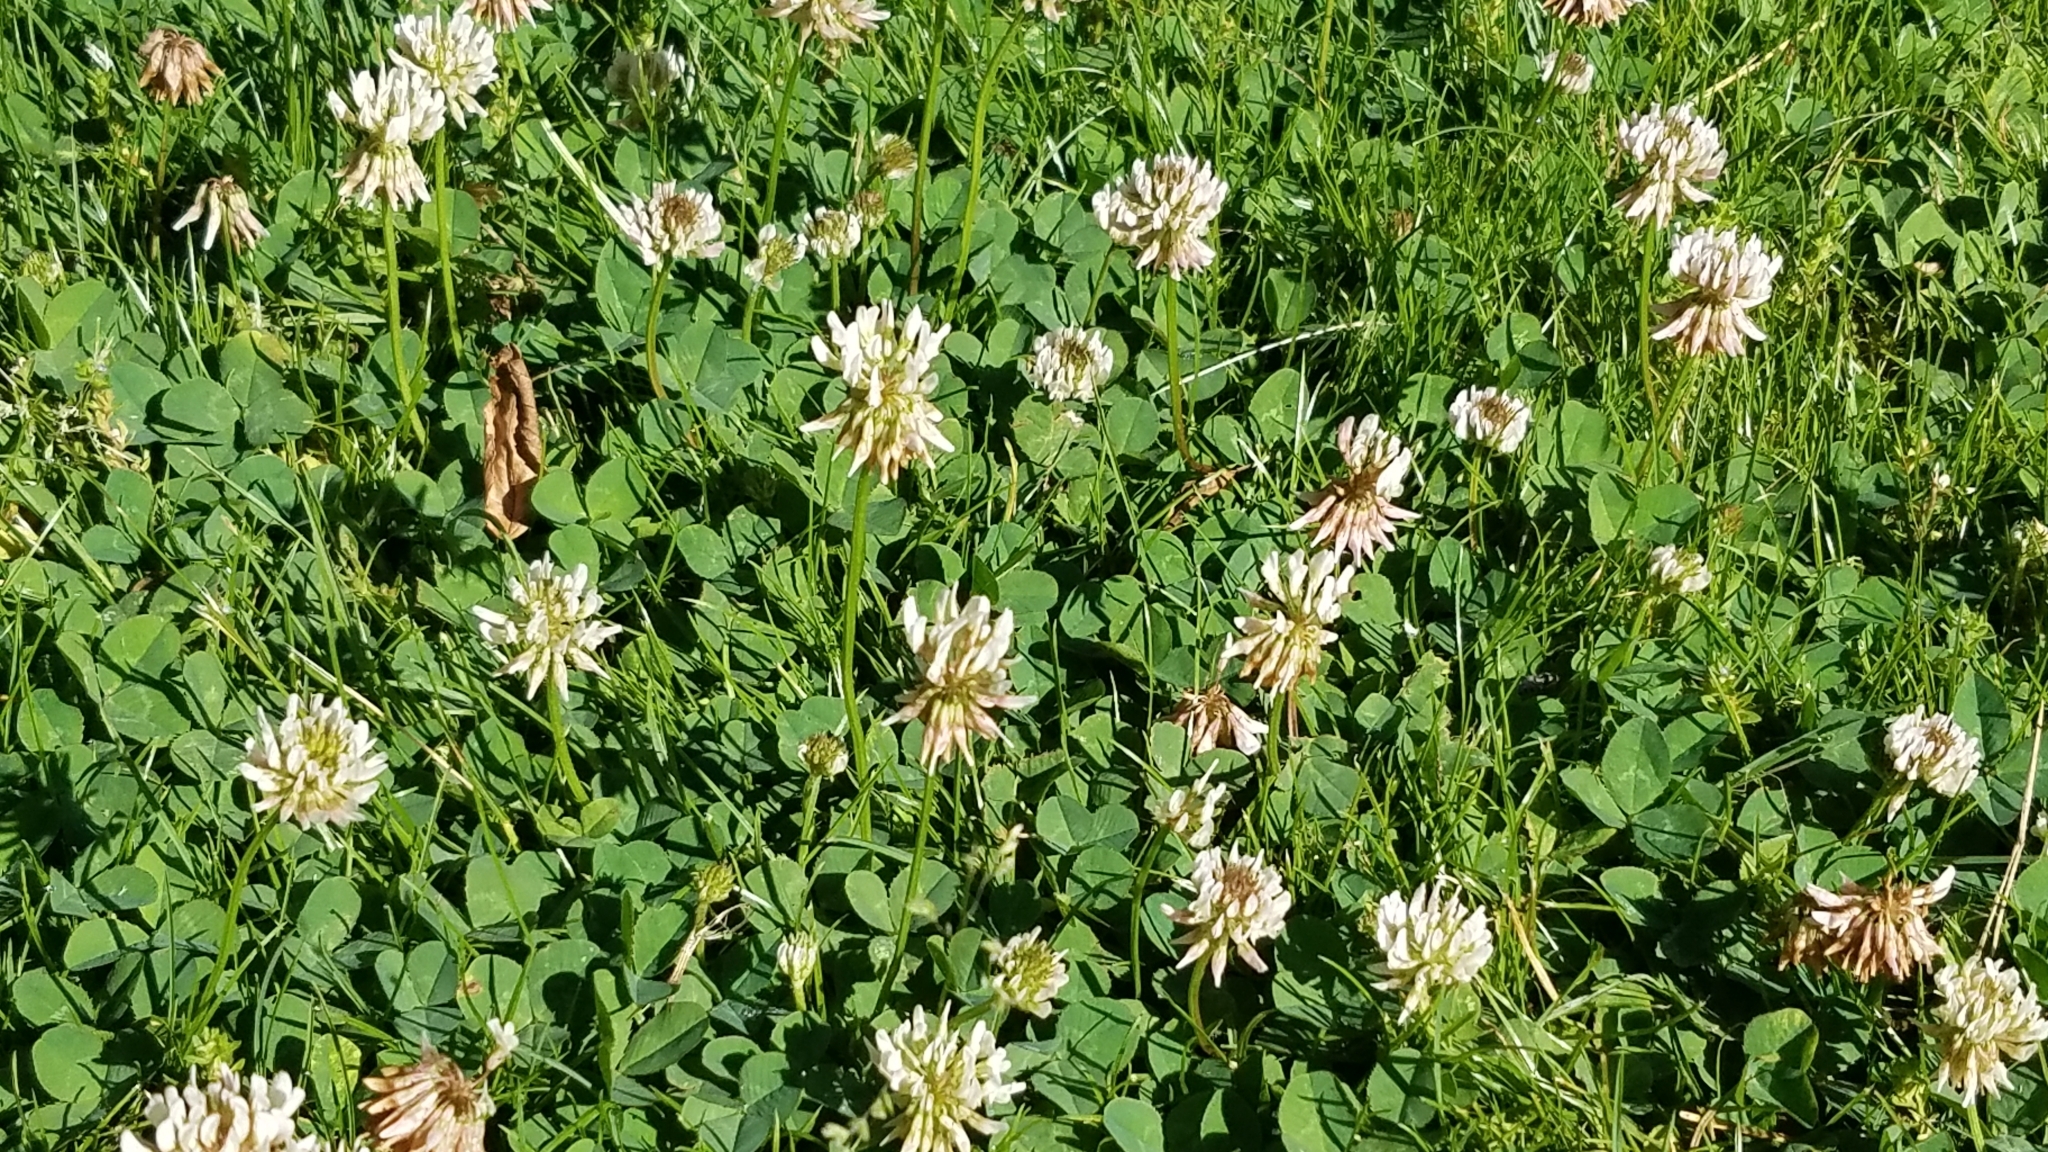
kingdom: Plantae
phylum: Tracheophyta
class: Magnoliopsida
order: Fabales
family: Fabaceae
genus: Trifolium
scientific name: Trifolium repens
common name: White clover
